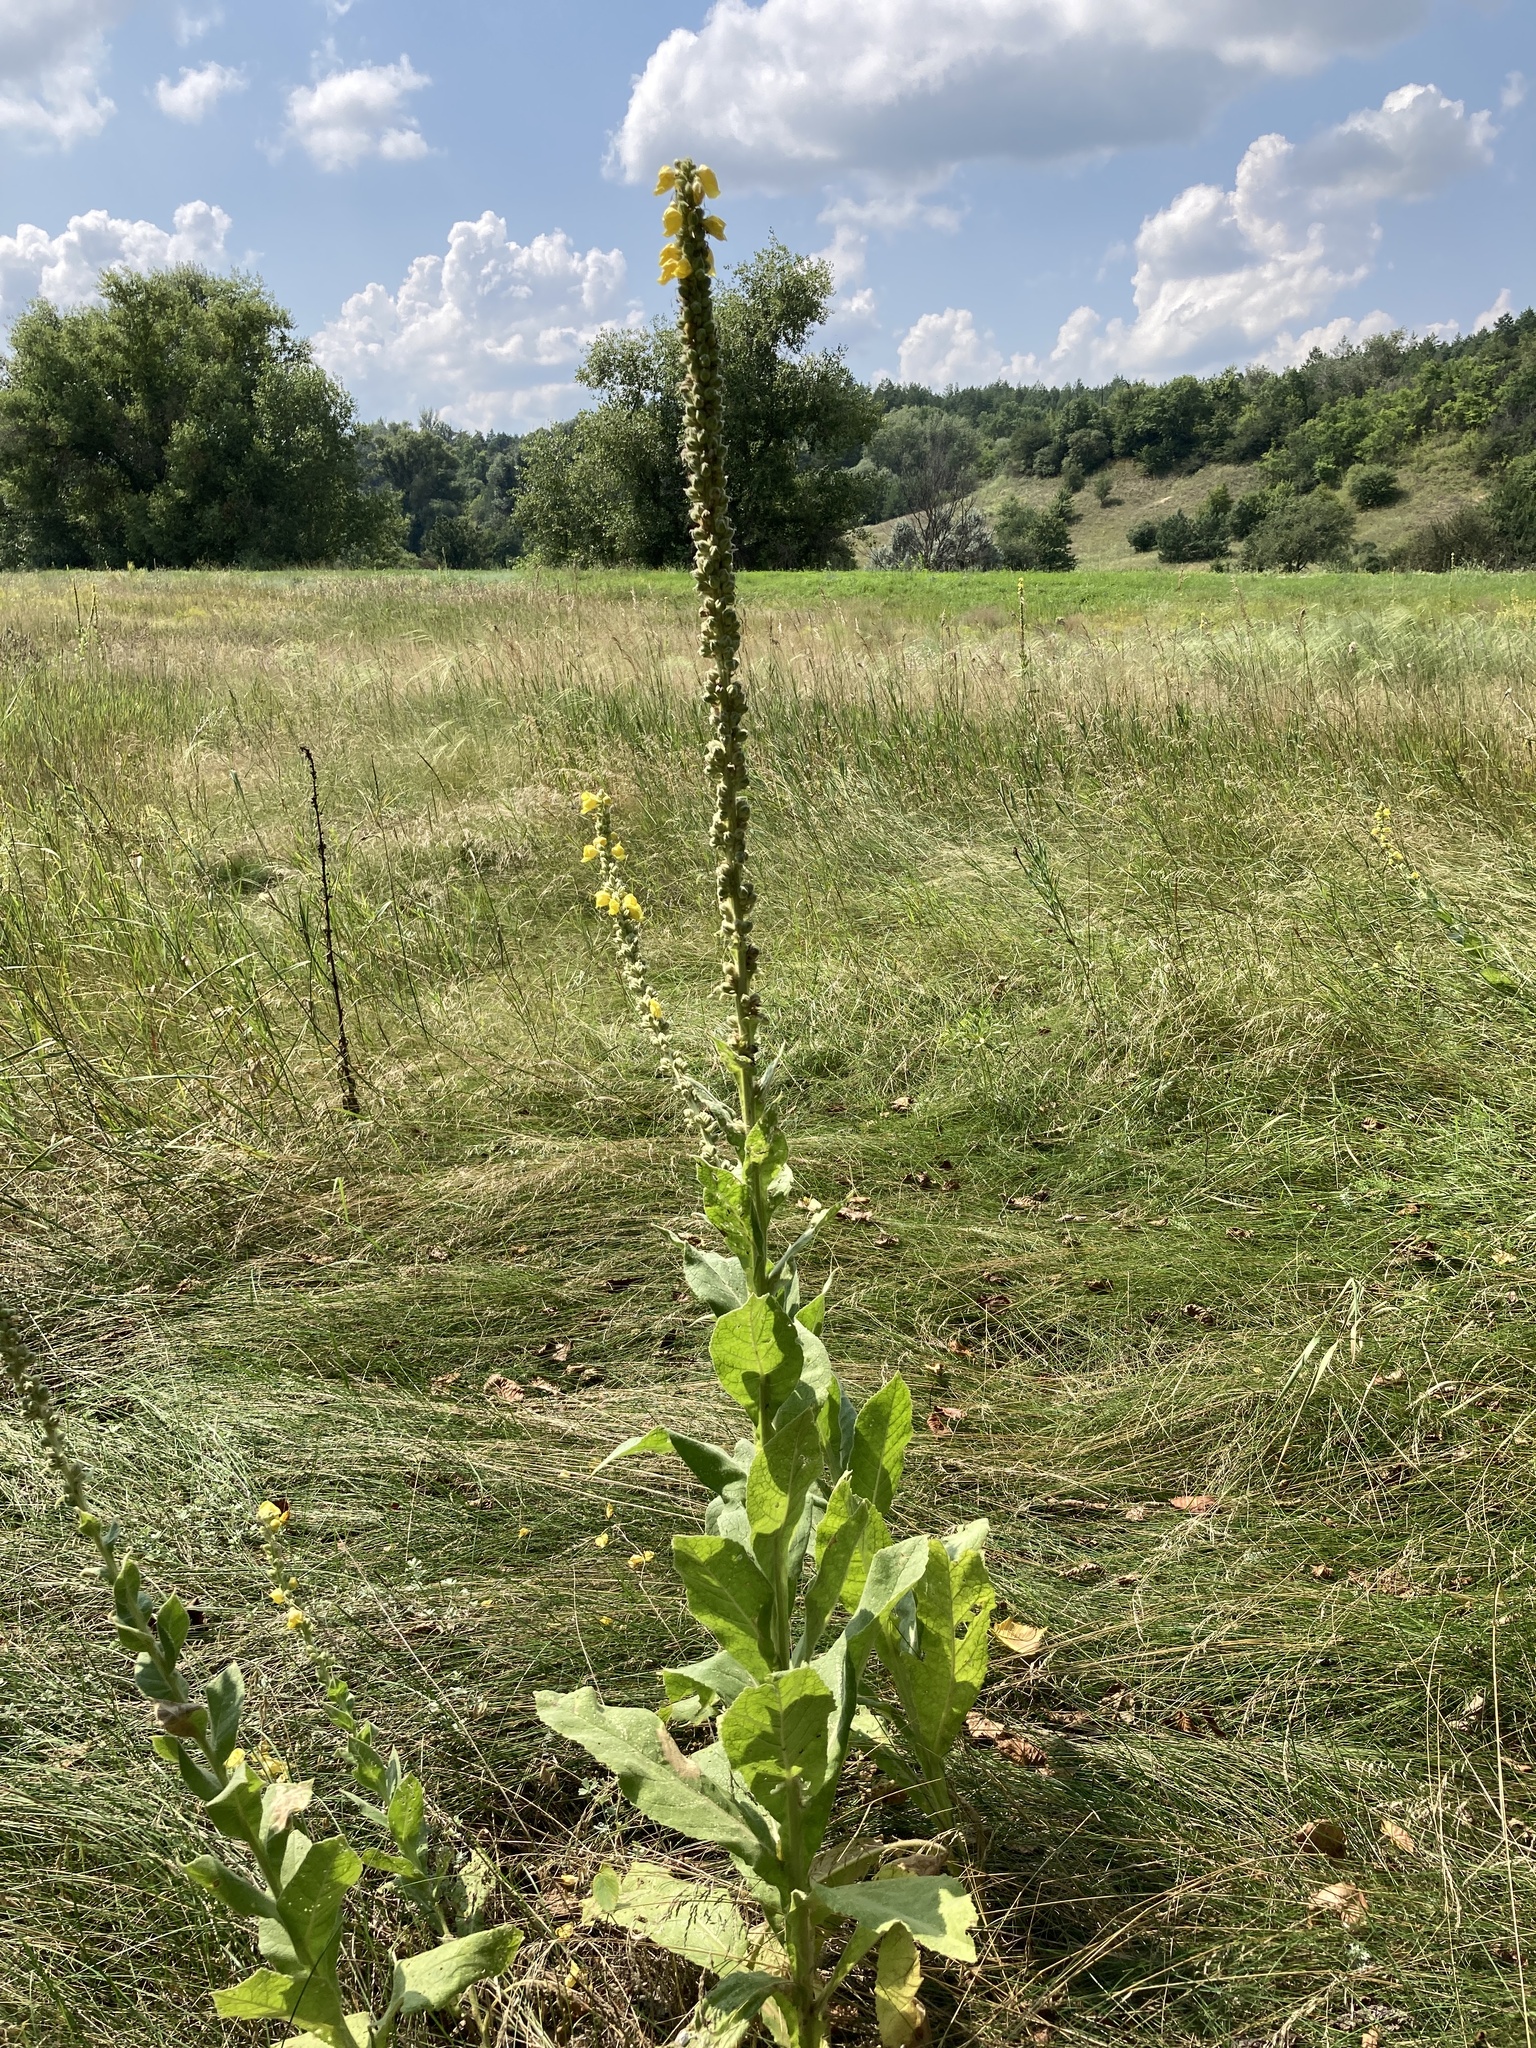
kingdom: Plantae
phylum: Tracheophyta
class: Magnoliopsida
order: Lamiales
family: Scrophulariaceae
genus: Verbascum
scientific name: Verbascum densiflorum
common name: Dense-flowered mullein
